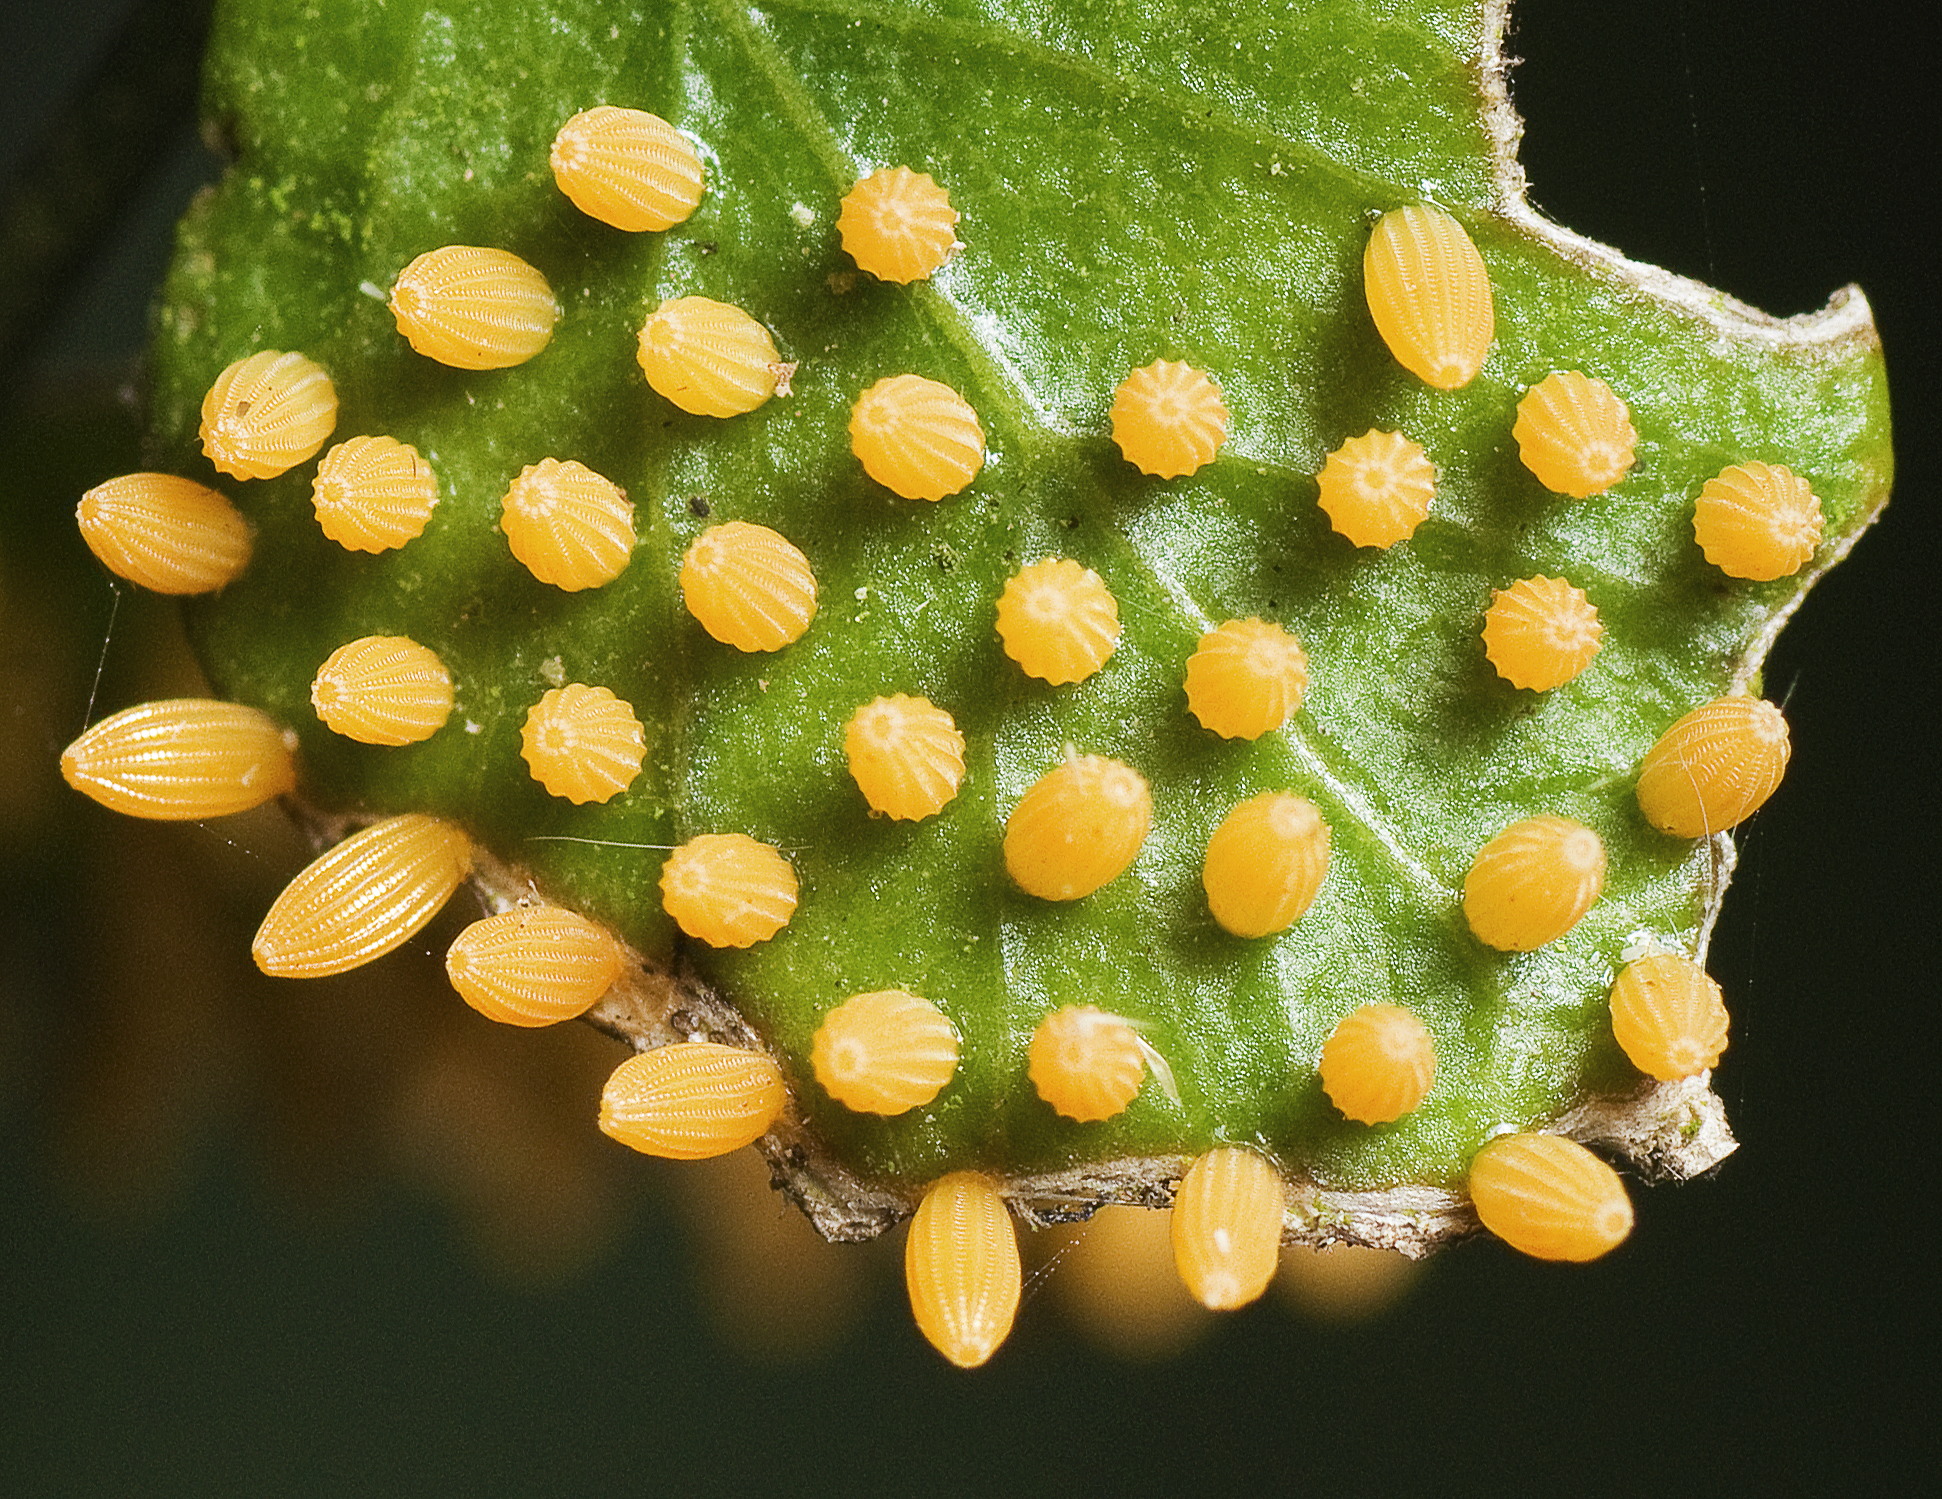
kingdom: Animalia
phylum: Arthropoda
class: Insecta
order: Lepidoptera
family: Pieridae
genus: Belenois
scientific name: Belenois java
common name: Caper white
